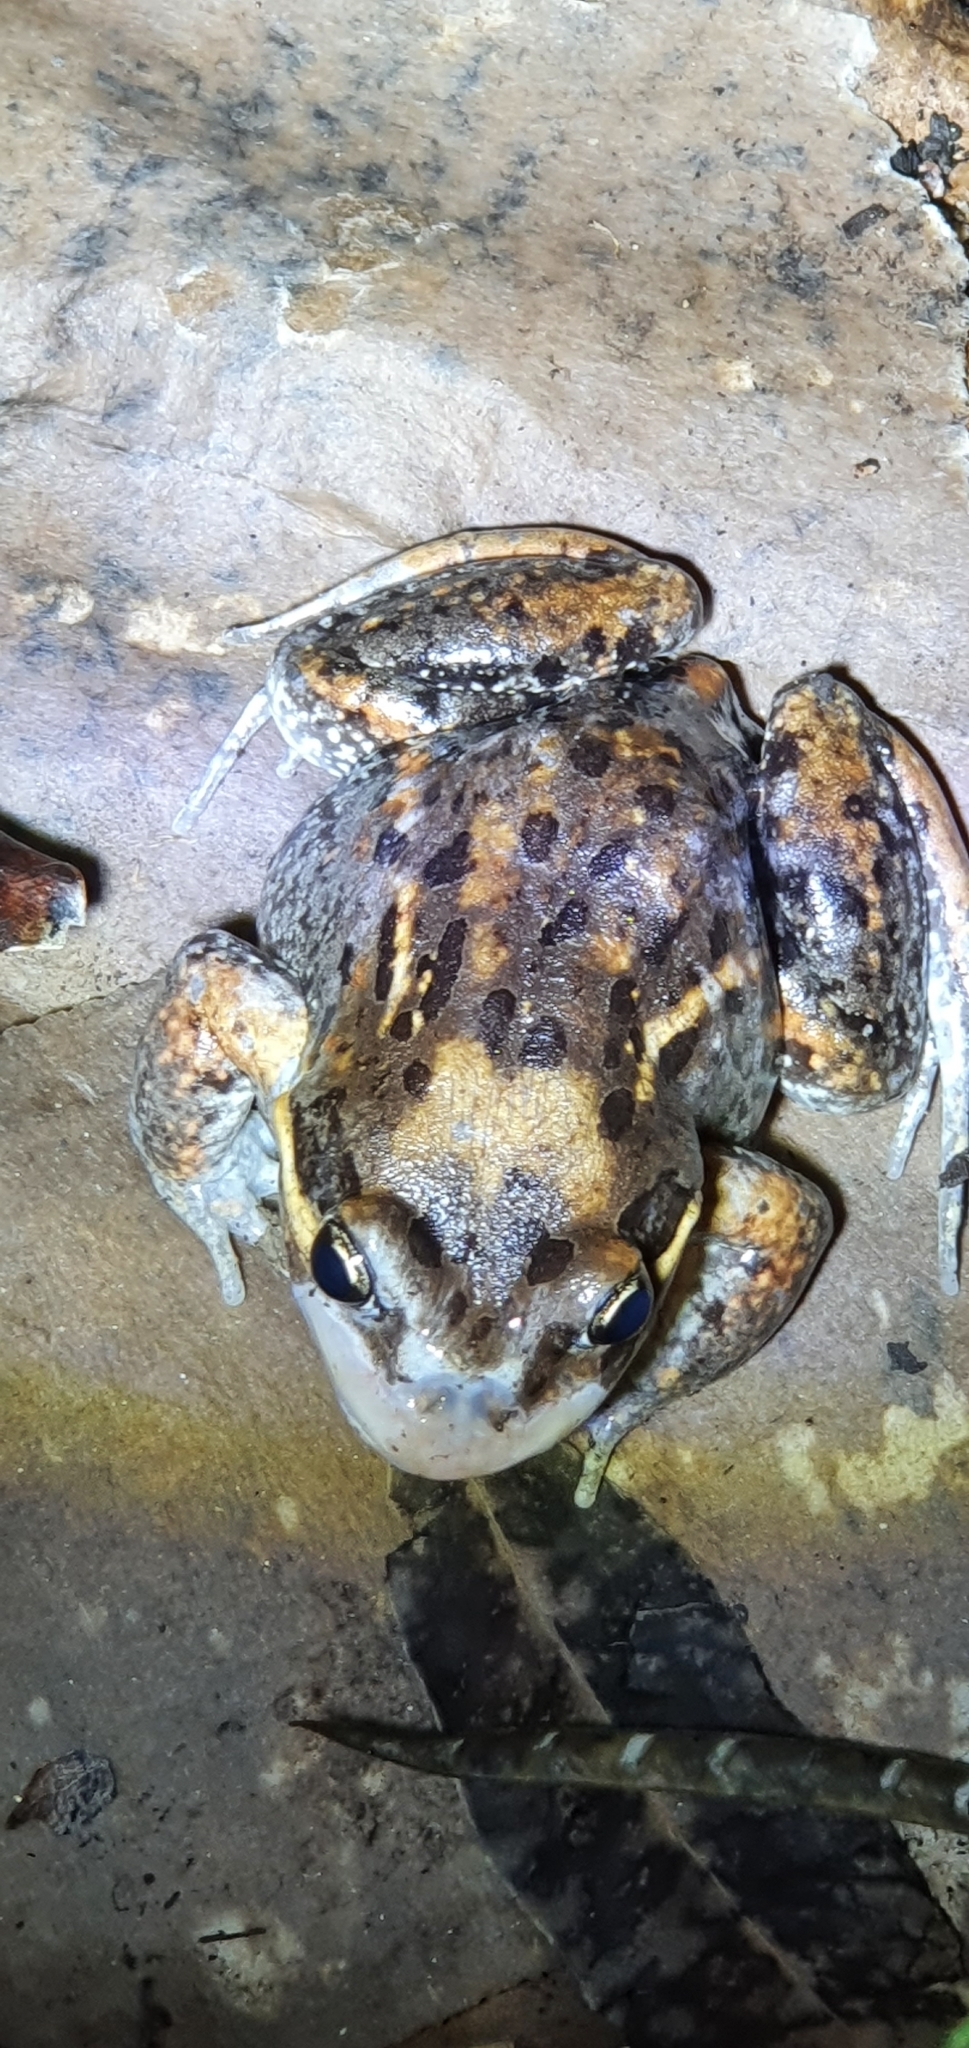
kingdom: Animalia
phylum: Chordata
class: Amphibia
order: Anura
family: Limnodynastidae
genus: Limnodynastes
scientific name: Limnodynastes salmini
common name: Salmon-striped frog
